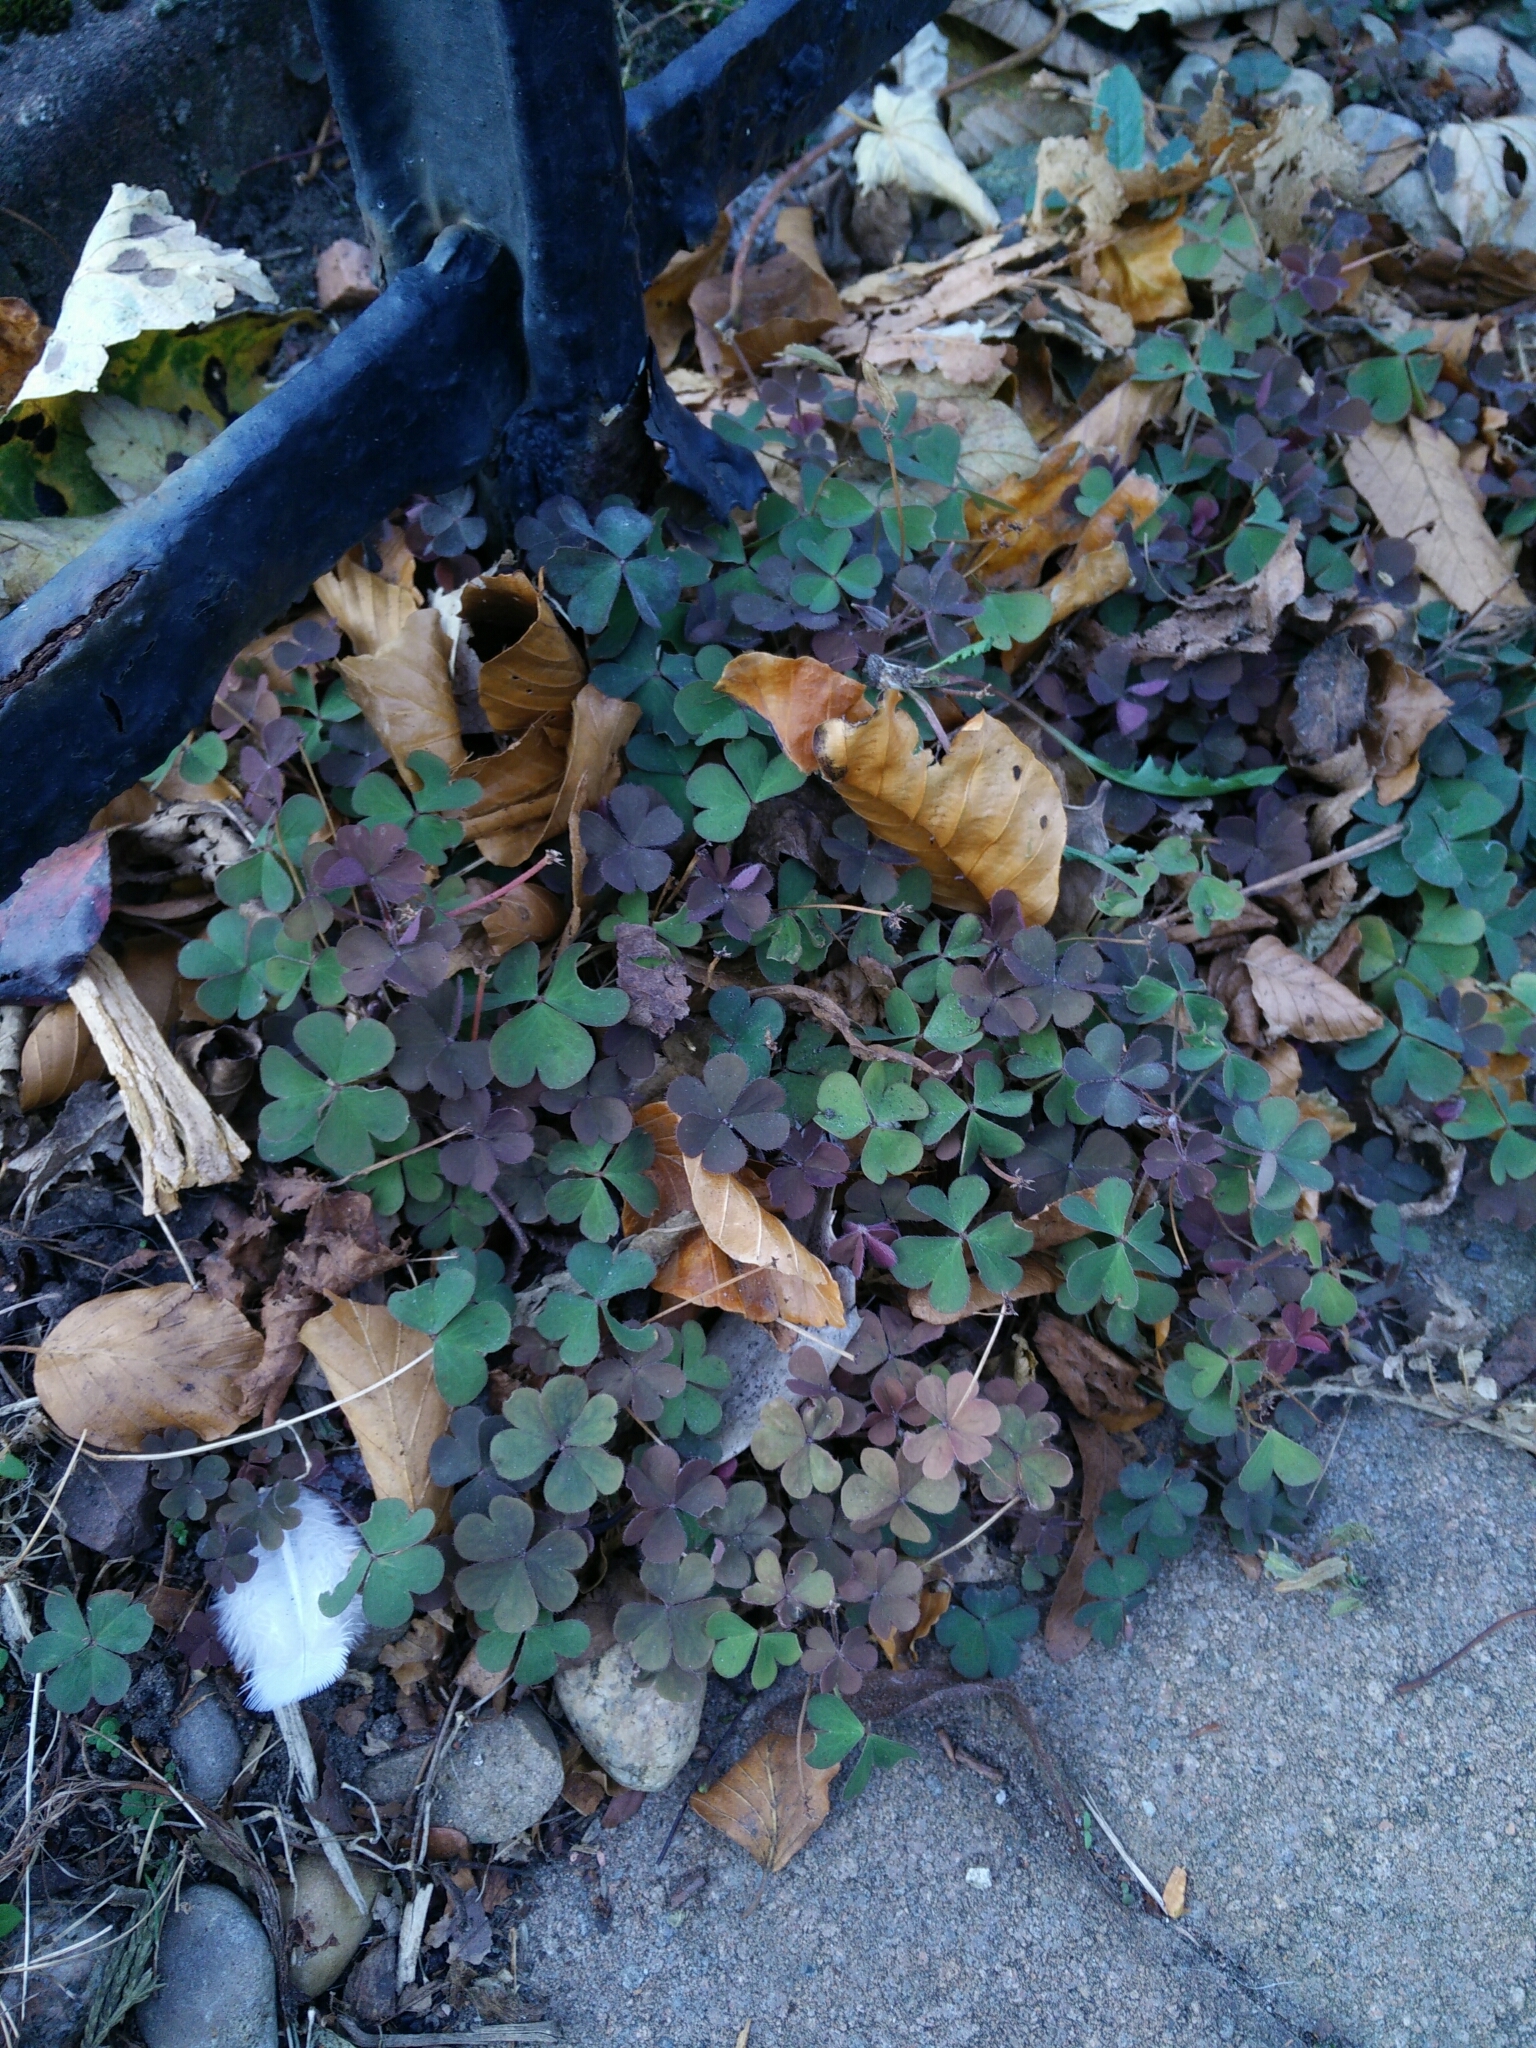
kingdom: Plantae
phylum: Tracheophyta
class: Magnoliopsida
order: Oxalidales
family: Oxalidaceae
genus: Oxalis
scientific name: Oxalis corniculata
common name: Procumbent yellow-sorrel
